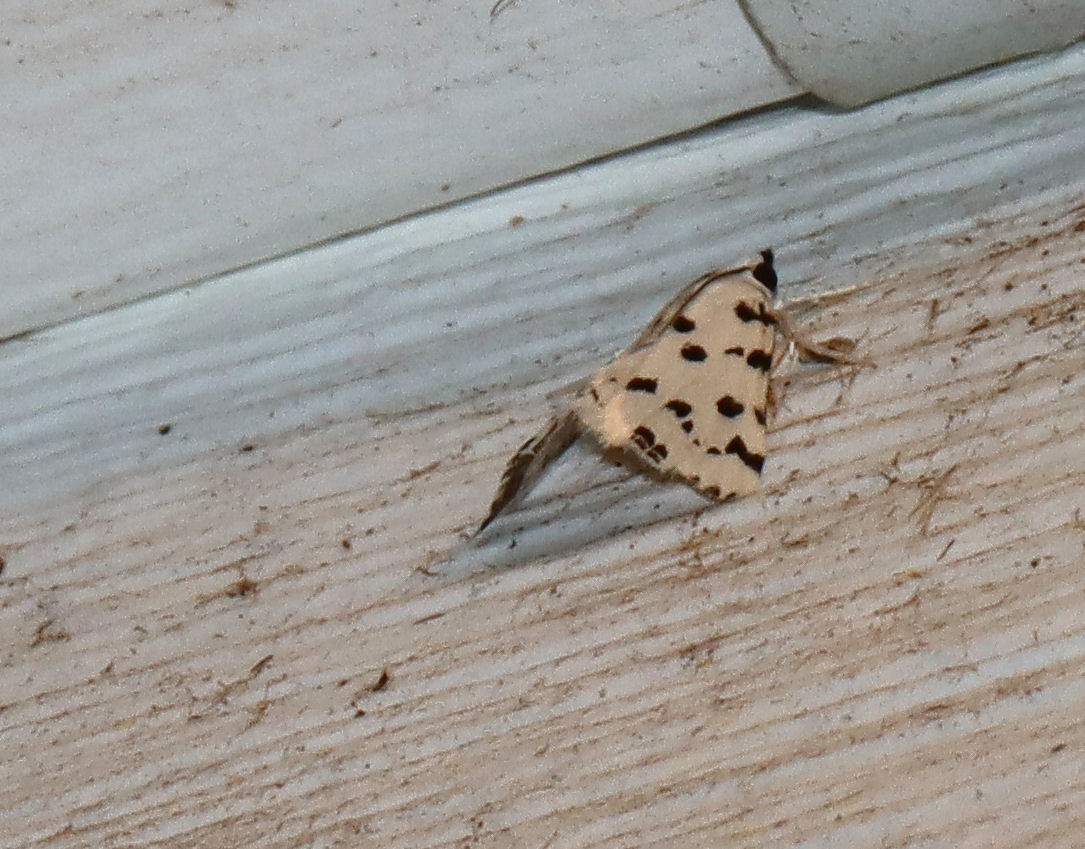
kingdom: Animalia
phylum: Arthropoda
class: Insecta
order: Lepidoptera
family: Crambidae
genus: Eustixia
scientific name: Eustixia pupula
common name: American cabbage pearl
